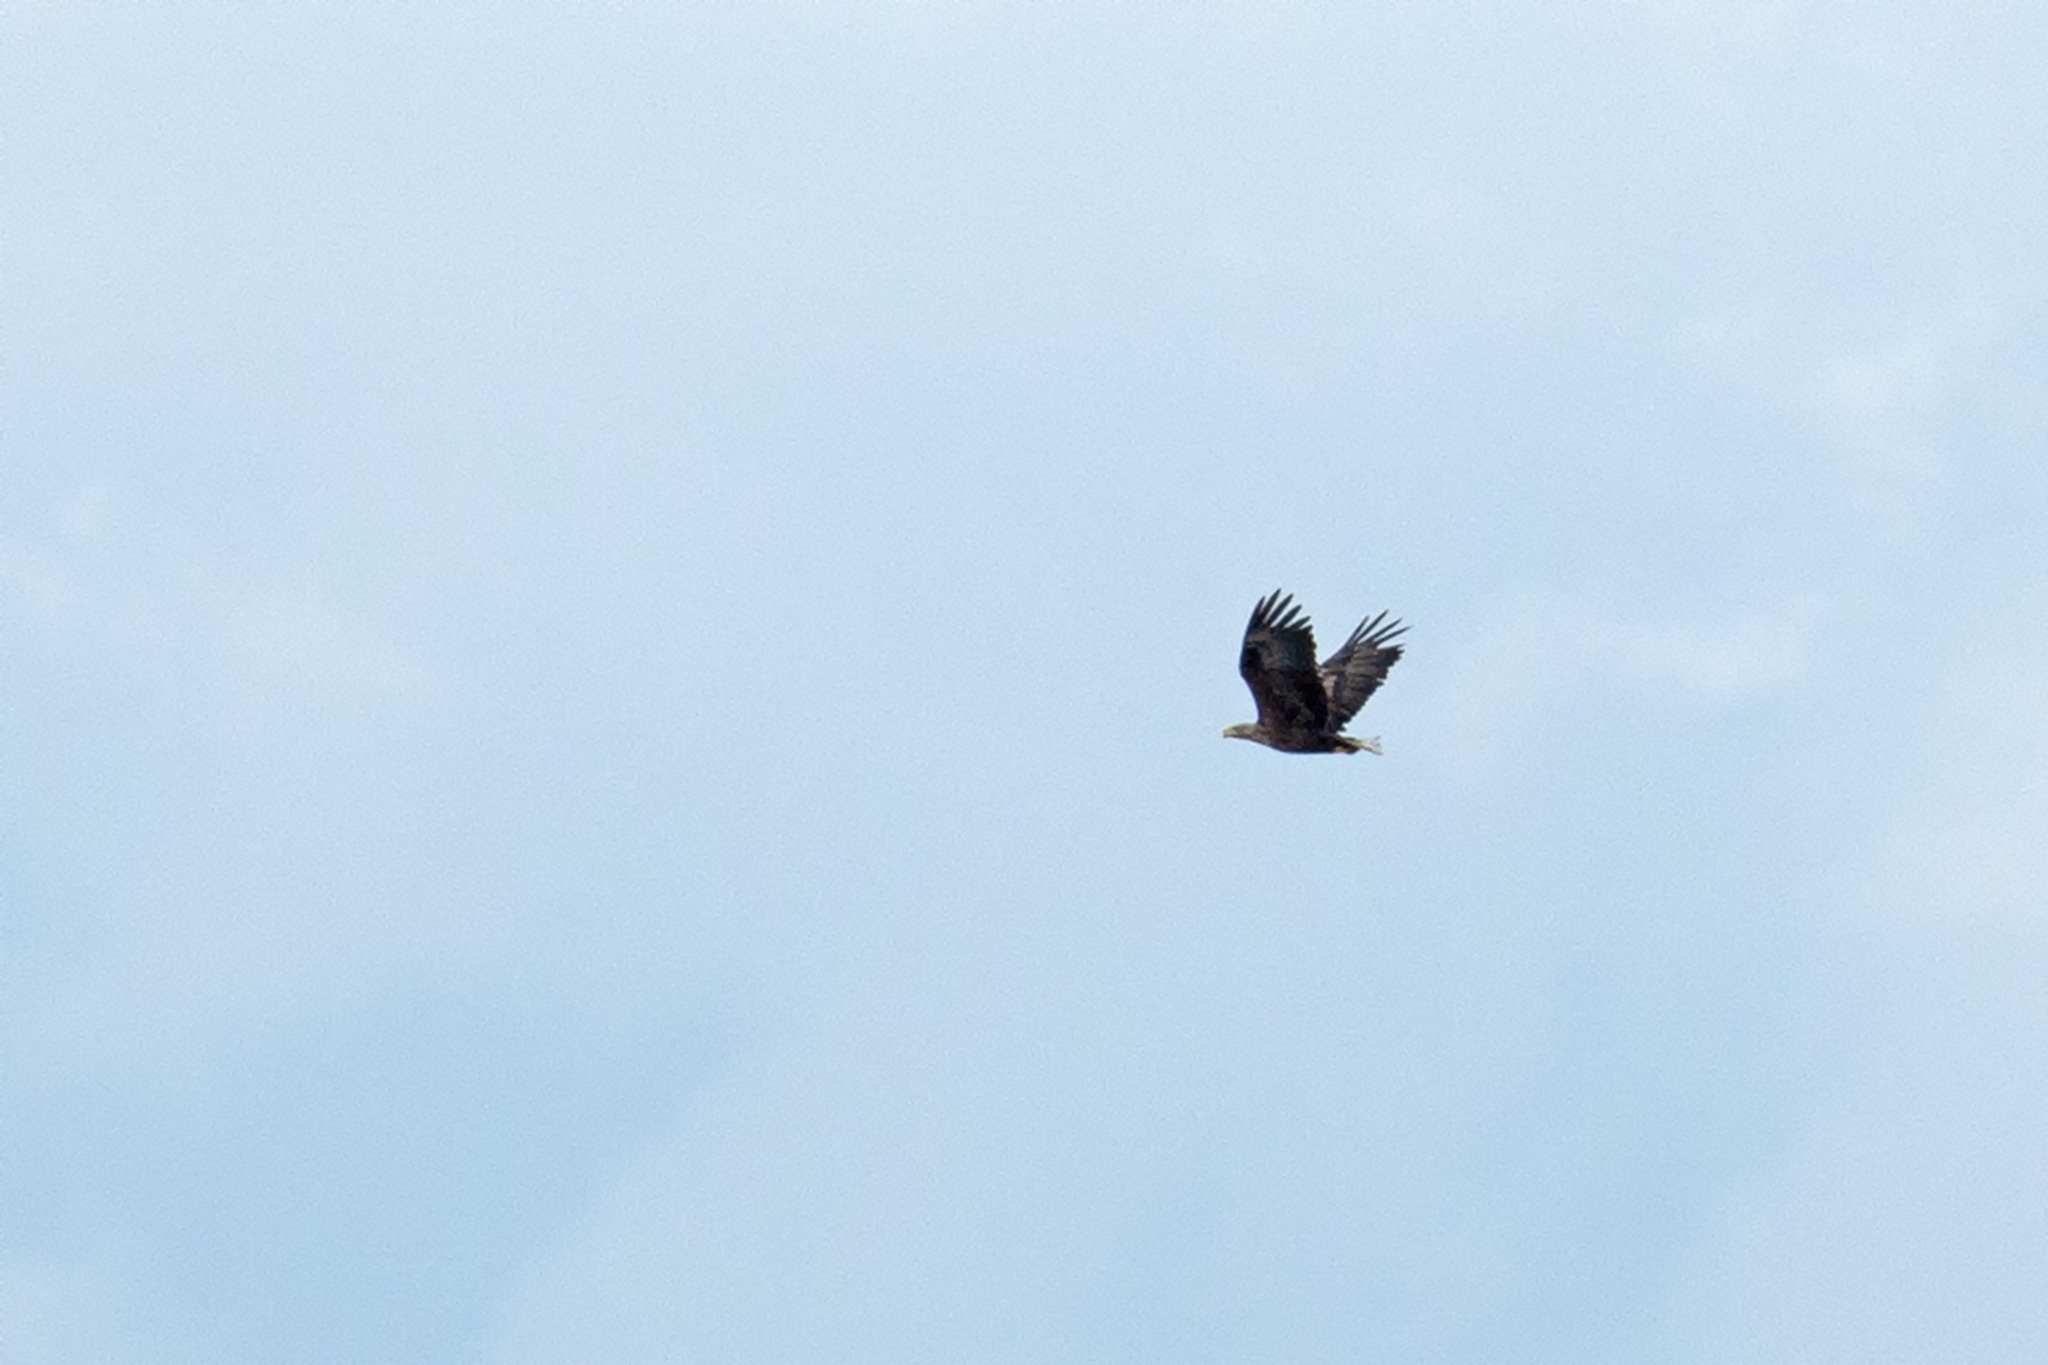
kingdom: Animalia
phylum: Chordata
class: Aves
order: Accipitriformes
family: Accipitridae
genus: Haliaeetus
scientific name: Haliaeetus albicilla
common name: White-tailed eagle
